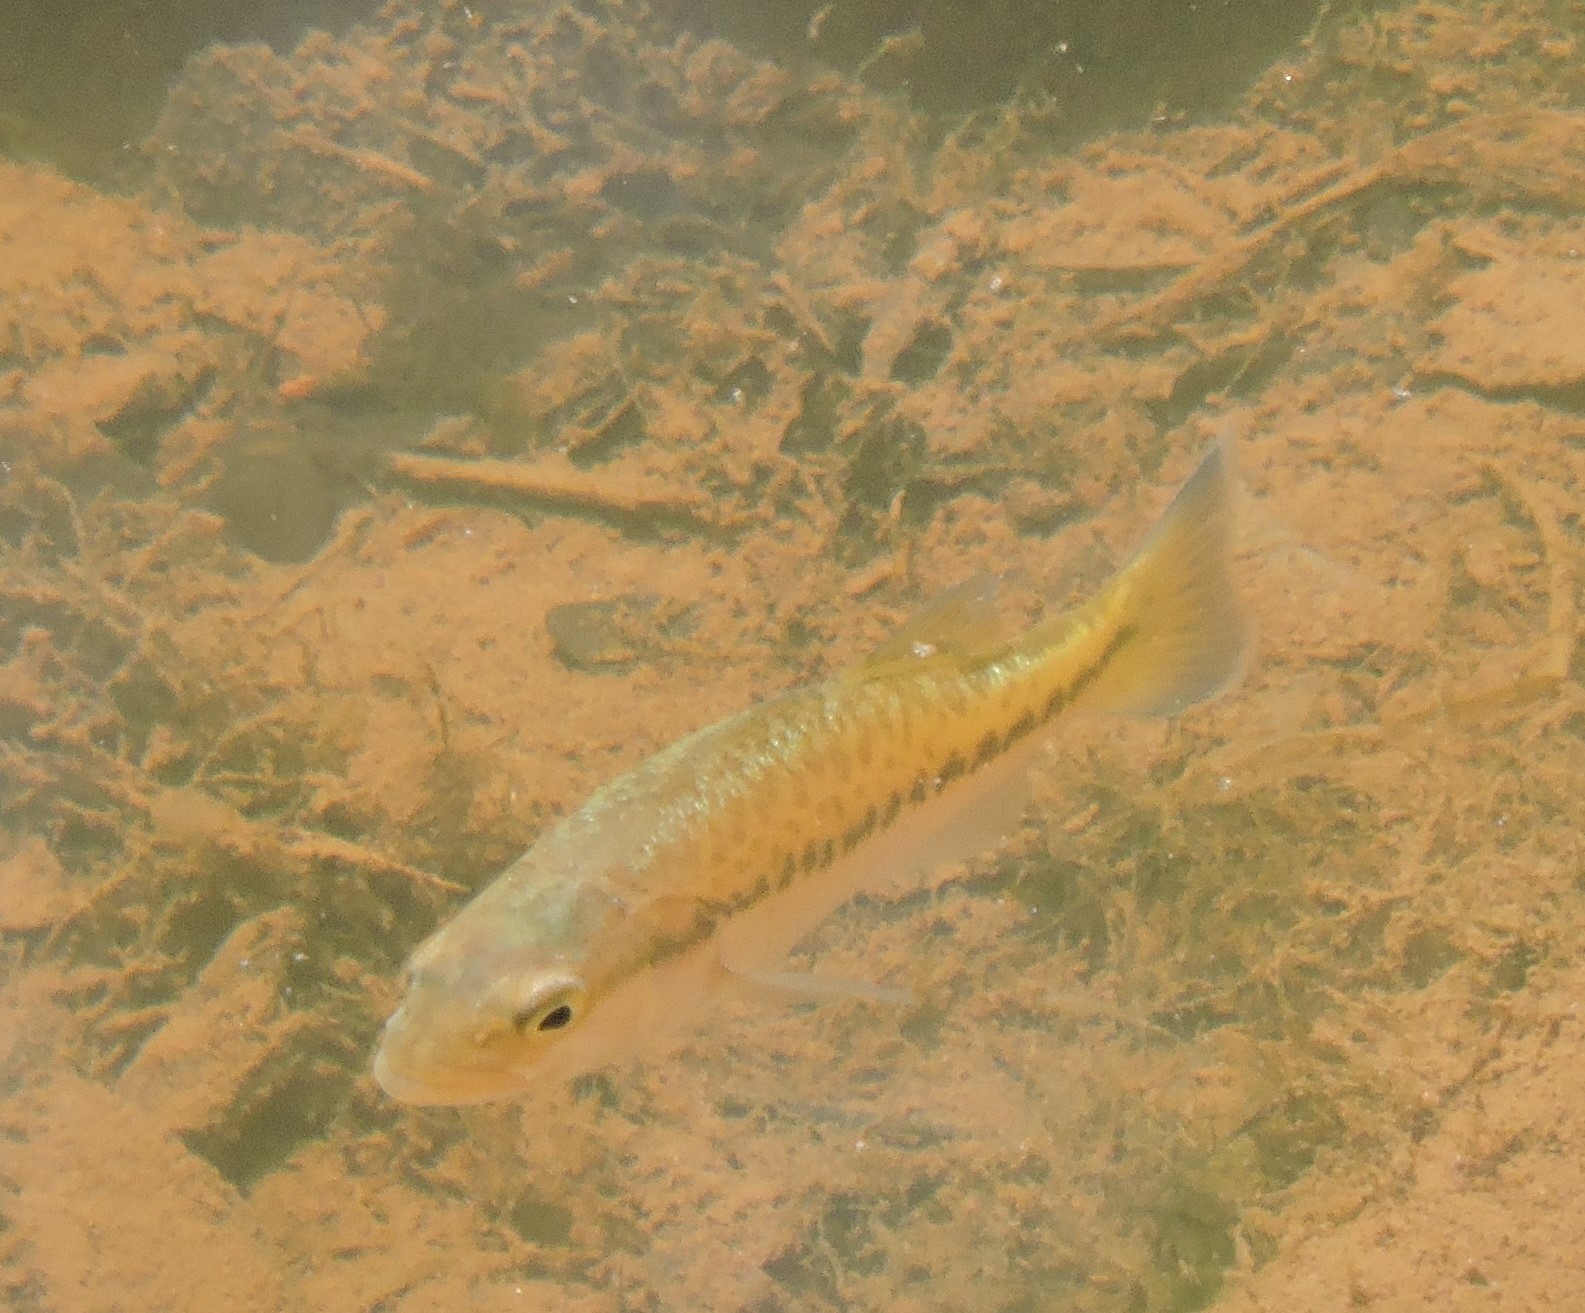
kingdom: Animalia
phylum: Chordata
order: Perciformes
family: Centrarchidae
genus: Micropterus
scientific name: Micropterus
